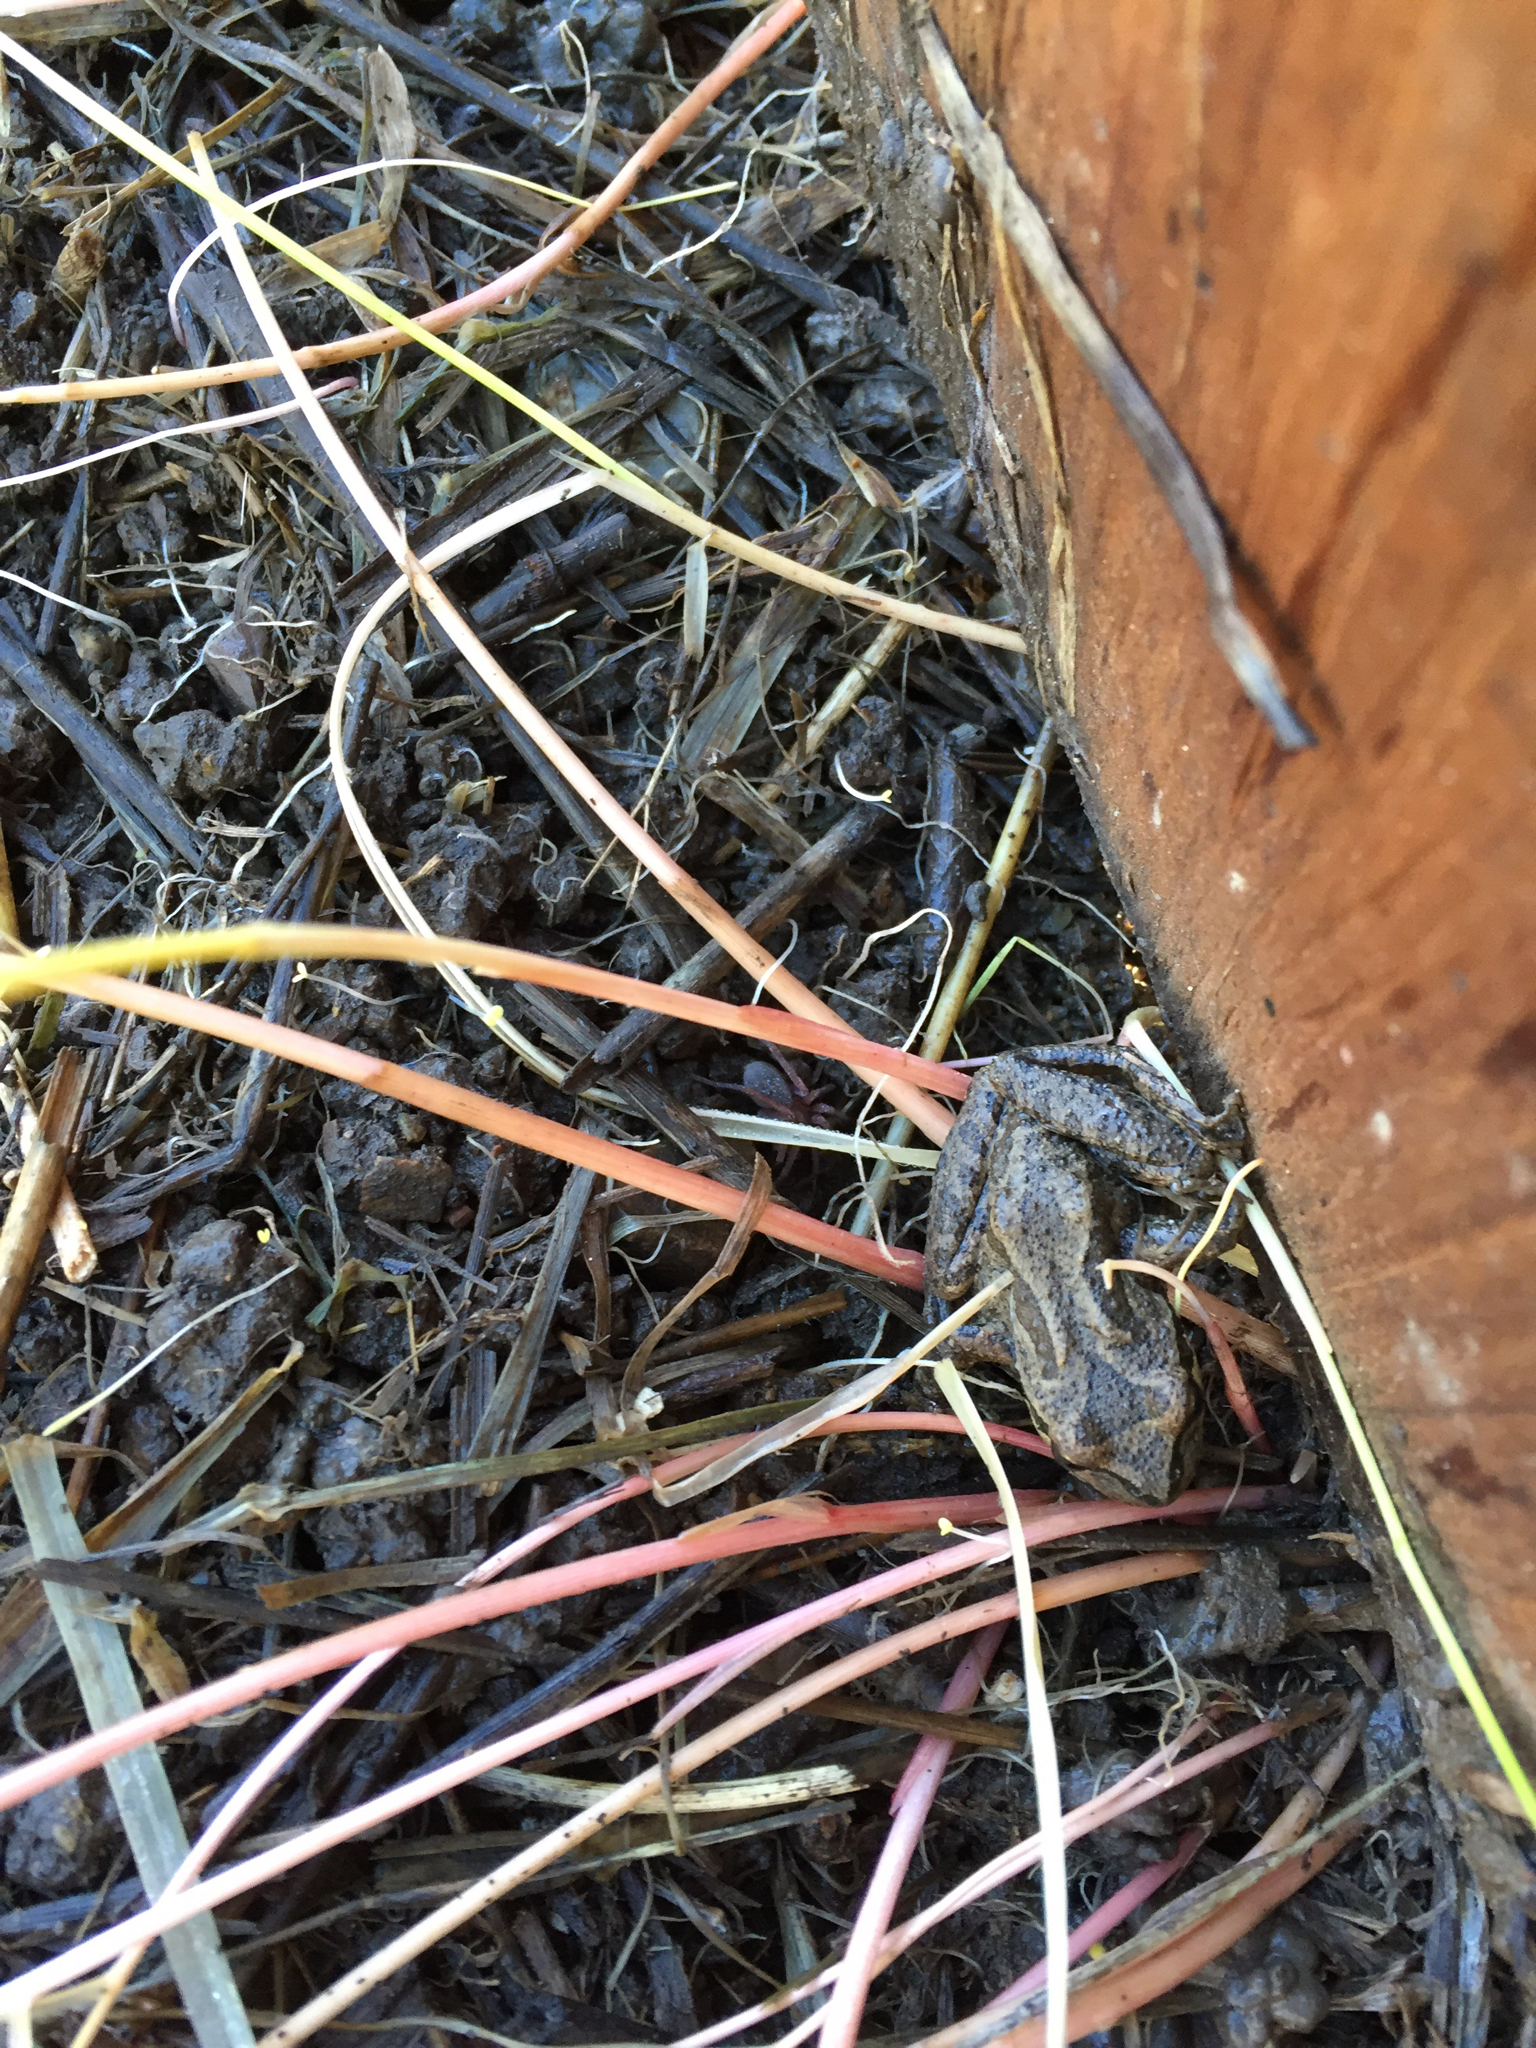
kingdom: Animalia
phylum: Chordata
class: Amphibia
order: Anura
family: Hylidae
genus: Pseudacris
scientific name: Pseudacris regilla
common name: Pacific chorus frog
